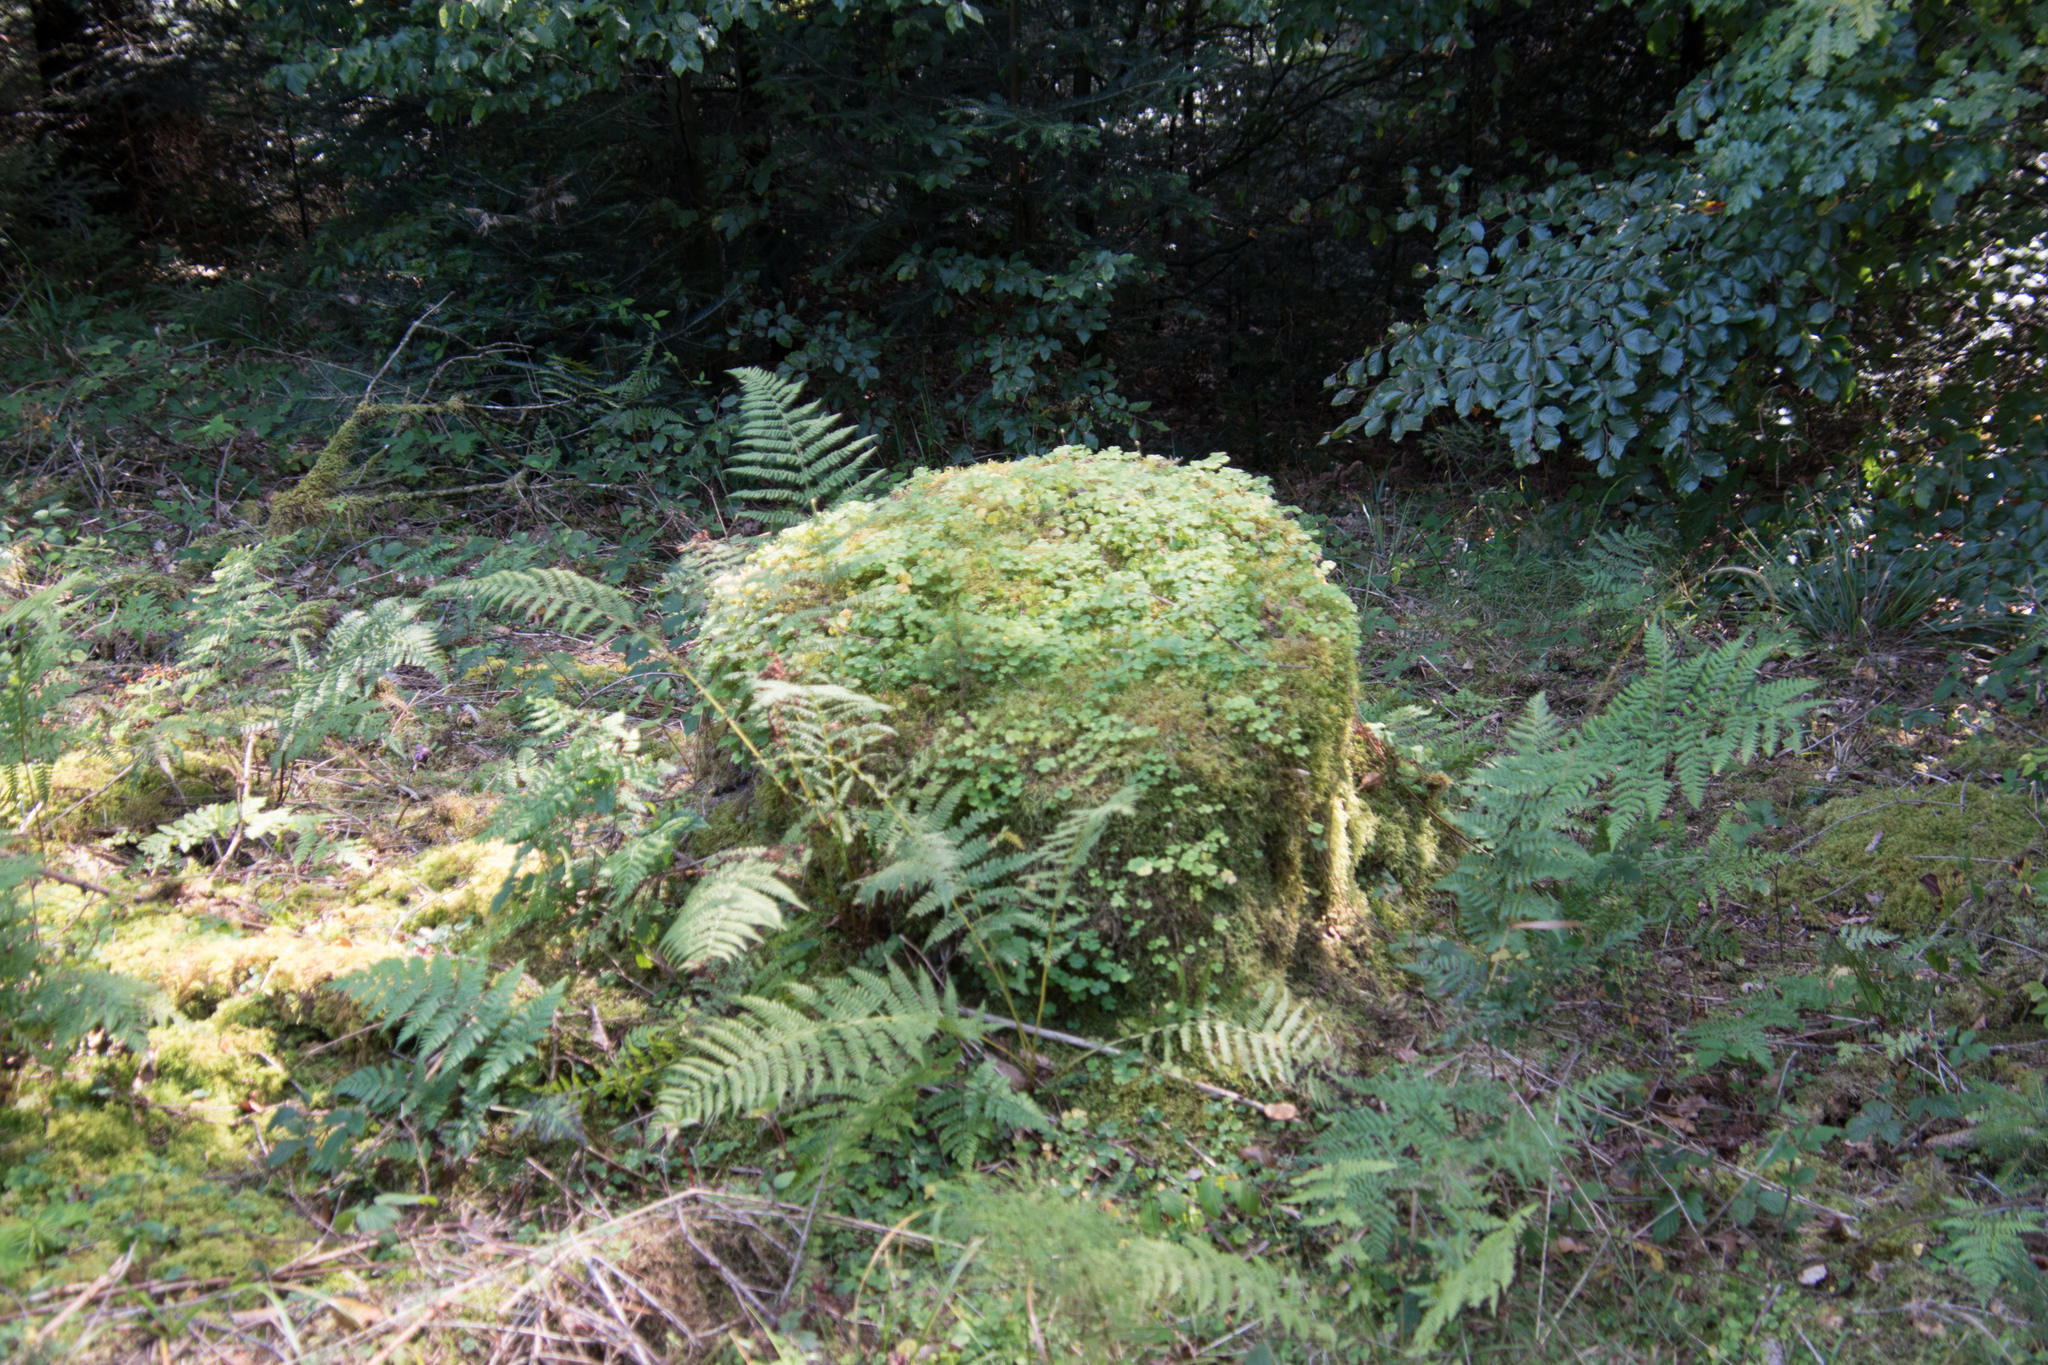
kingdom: Plantae
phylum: Tracheophyta
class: Magnoliopsida
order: Oxalidales
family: Oxalidaceae
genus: Oxalis
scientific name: Oxalis acetosella
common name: Wood-sorrel
